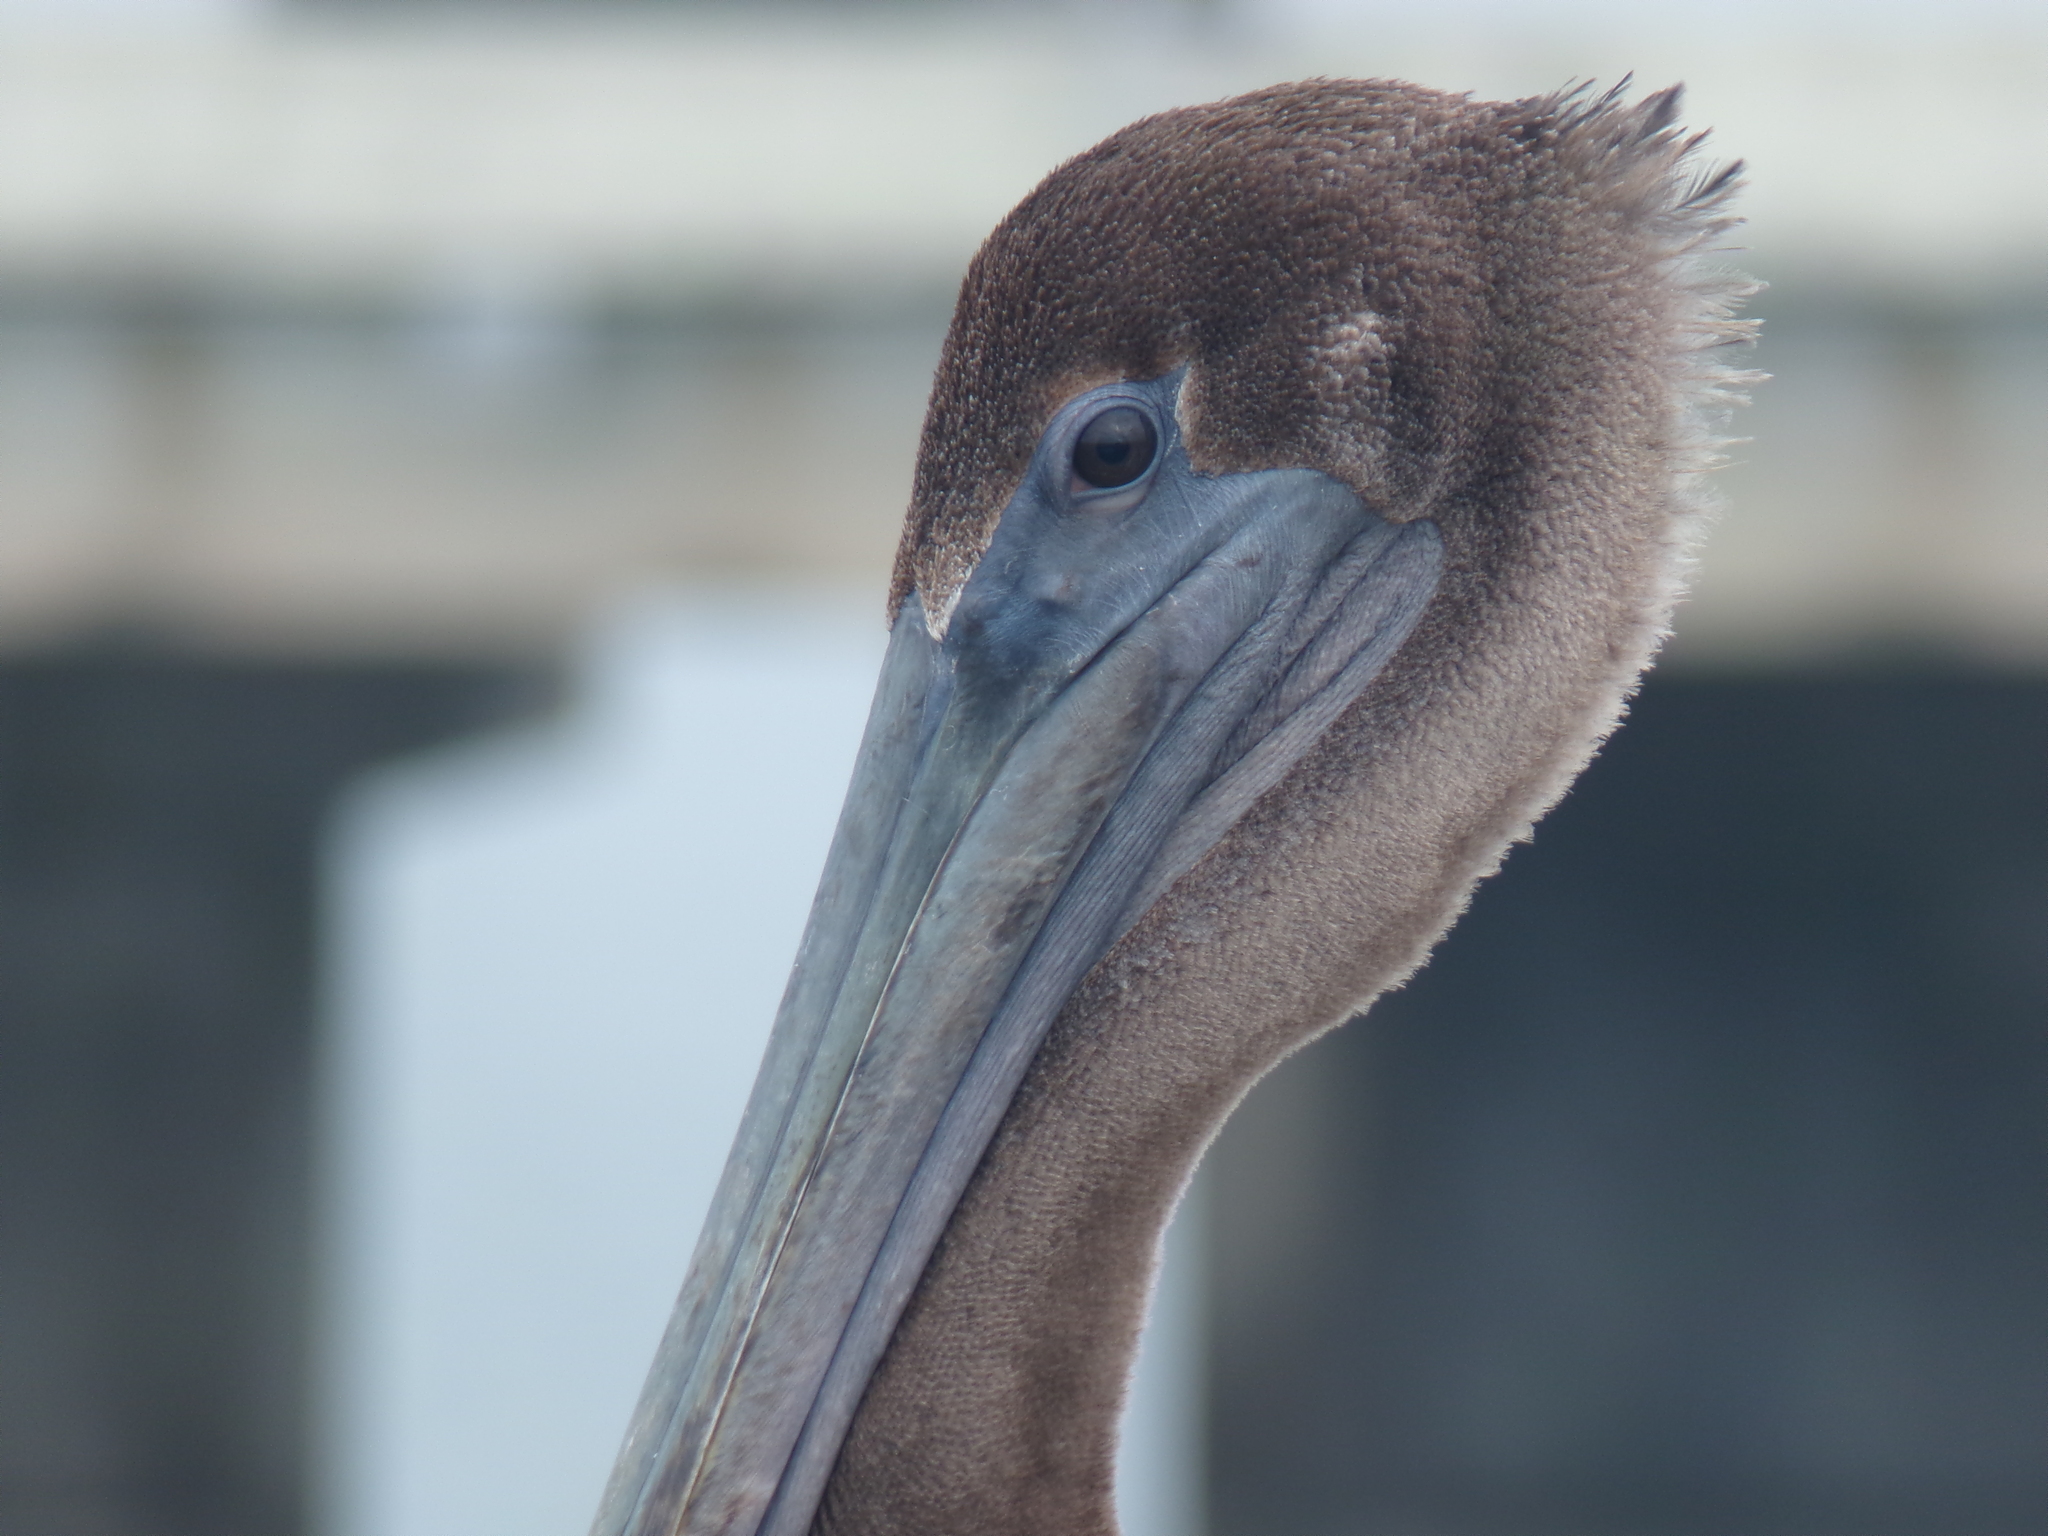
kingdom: Animalia
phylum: Chordata
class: Aves
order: Pelecaniformes
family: Pelecanidae
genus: Pelecanus
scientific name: Pelecanus occidentalis
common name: Brown pelican
